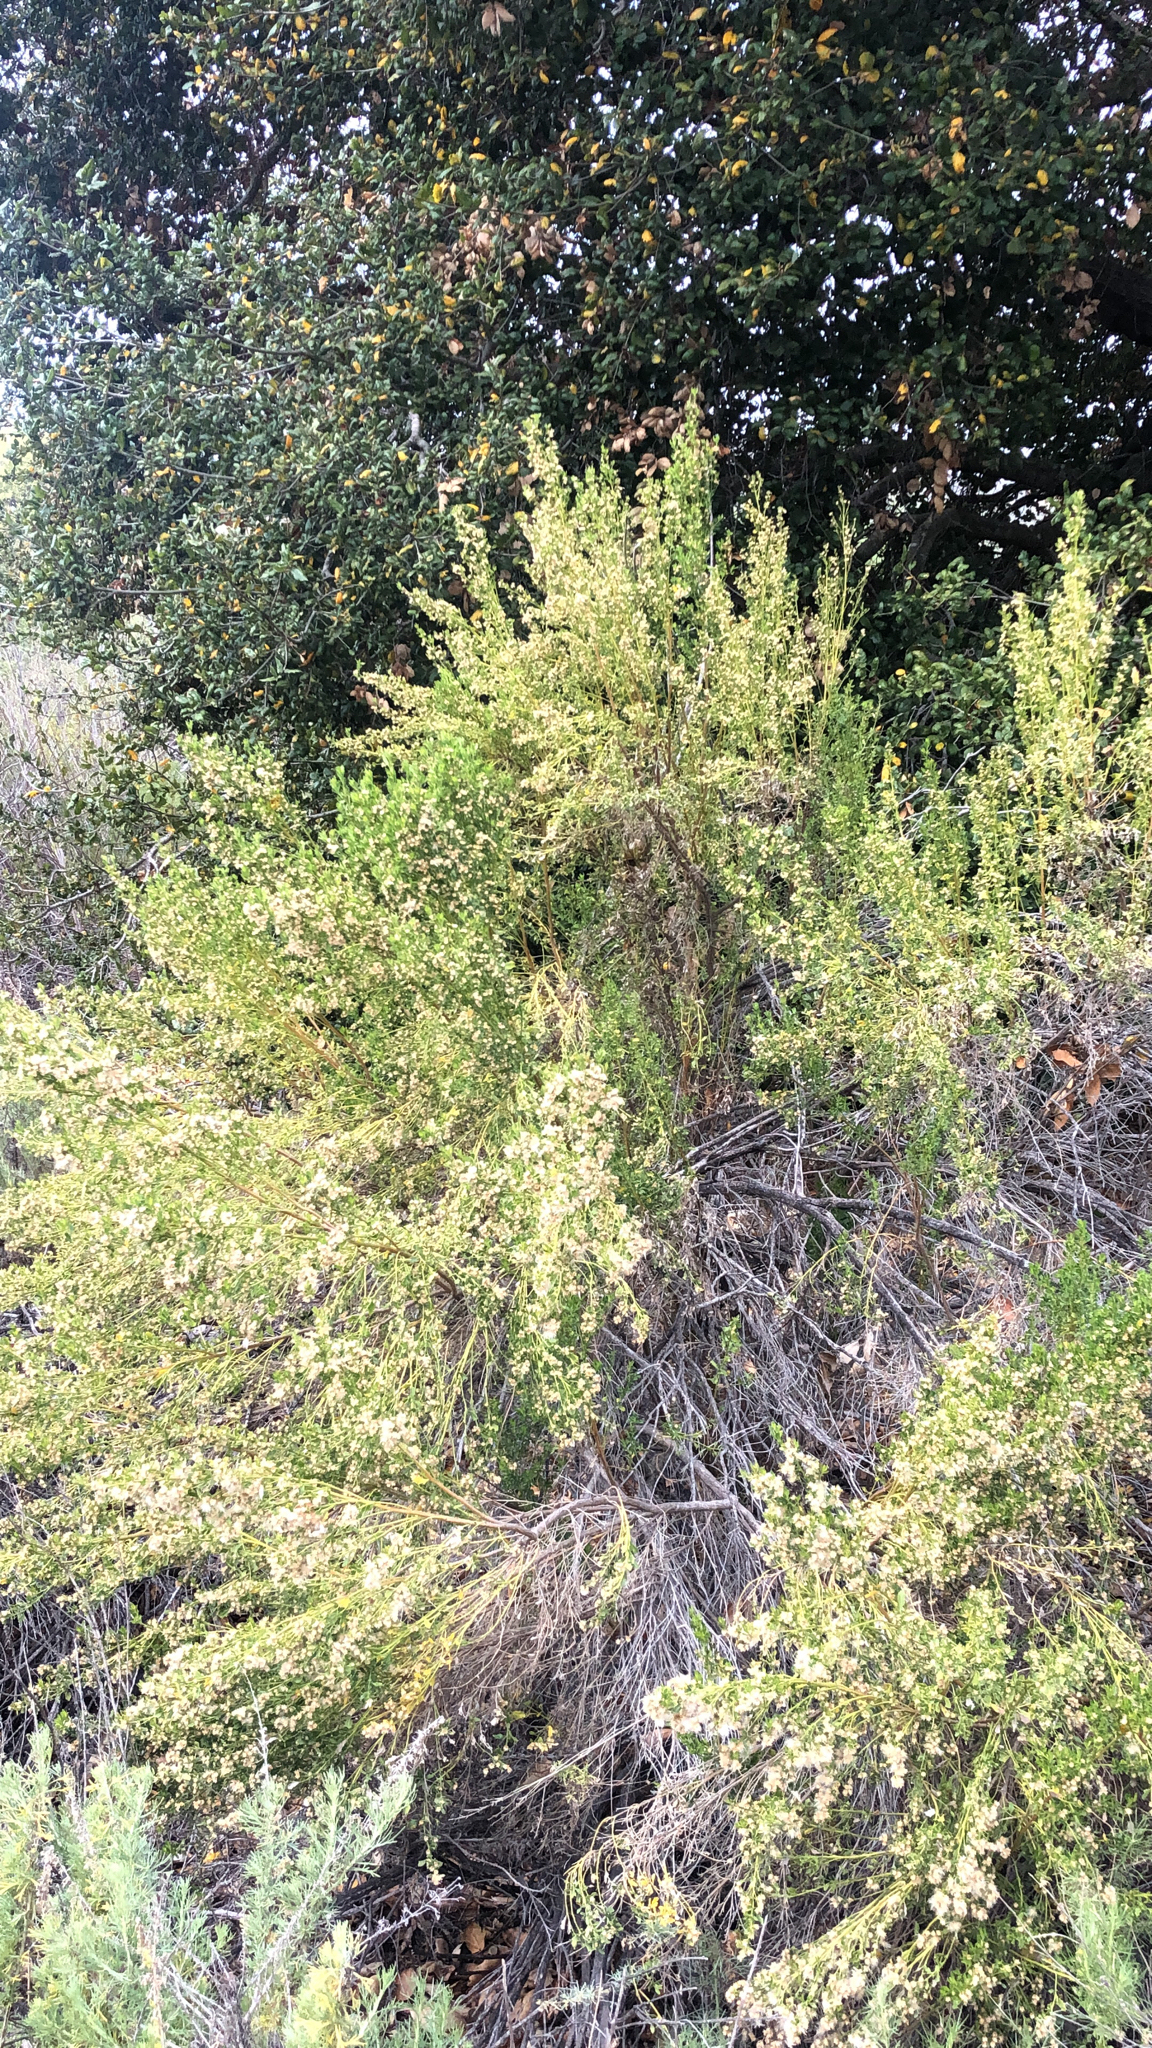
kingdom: Plantae
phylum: Tracheophyta
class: Magnoliopsida
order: Asterales
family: Asteraceae
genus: Baccharis
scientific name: Baccharis pilularis
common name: Coyotebrush
